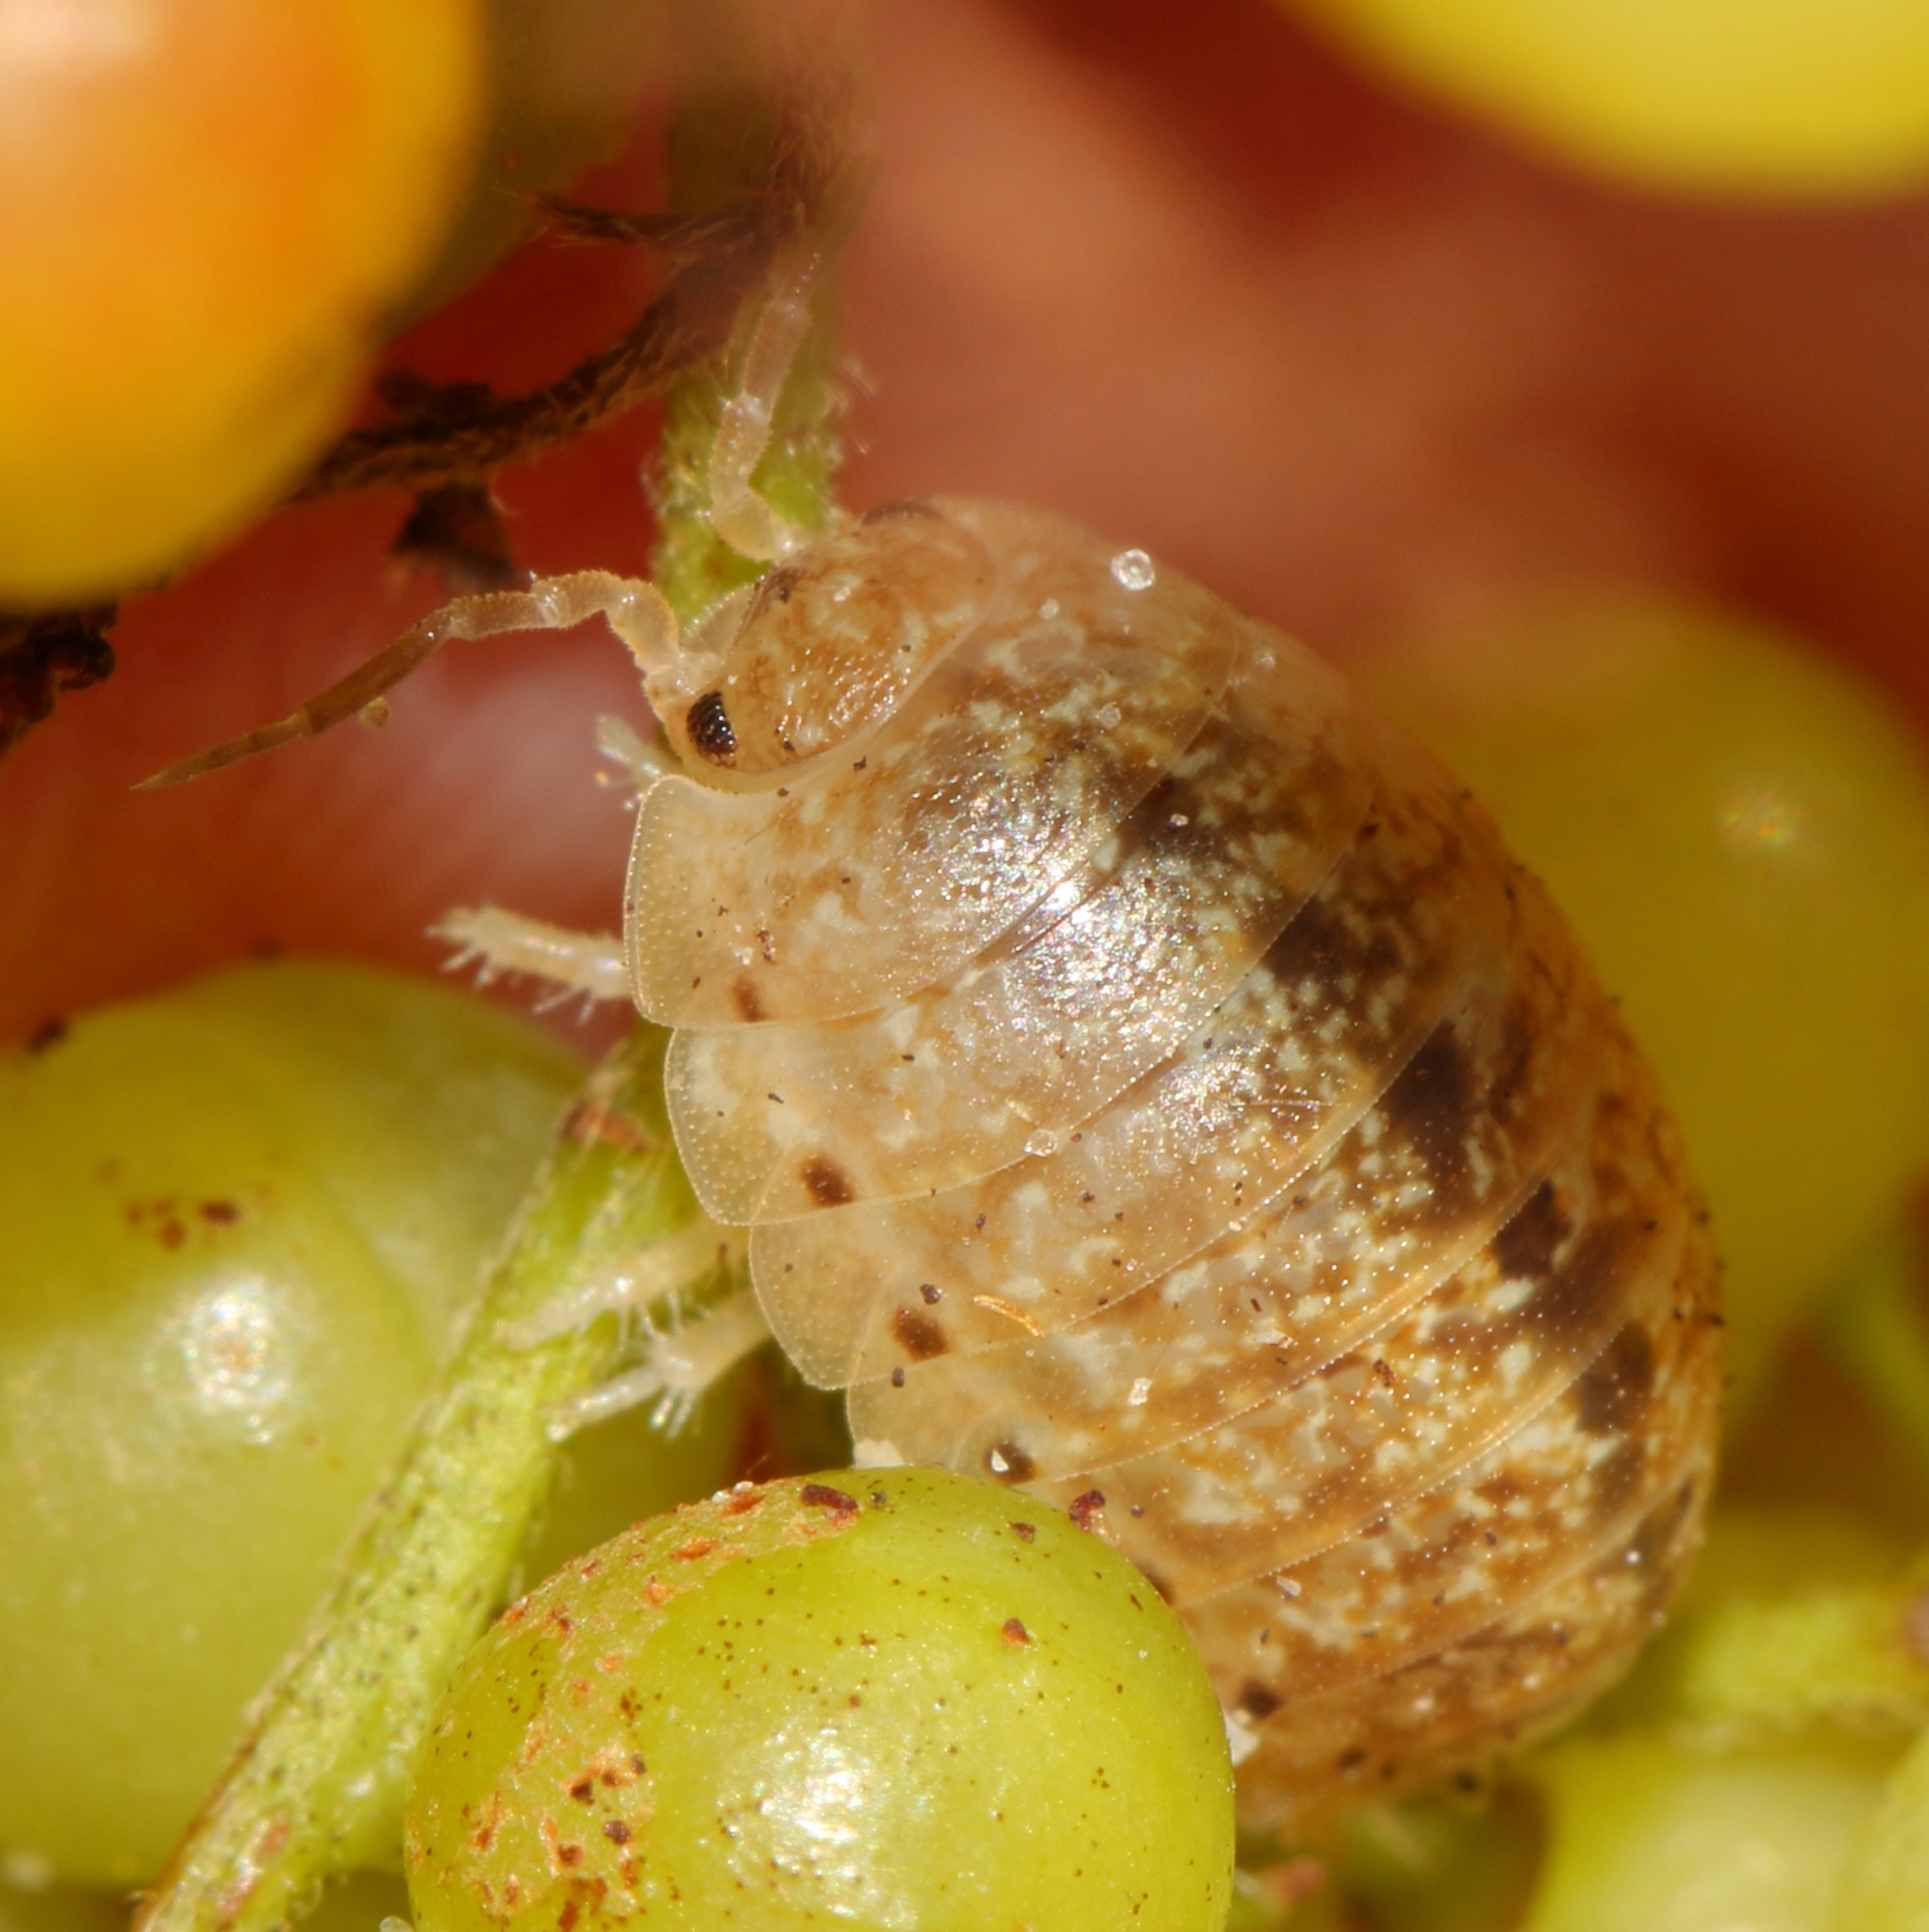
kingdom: Animalia
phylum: Arthropoda
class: Malacostraca
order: Isopoda
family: Alloniscidae
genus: Alloniscus
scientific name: Alloniscus marinus
